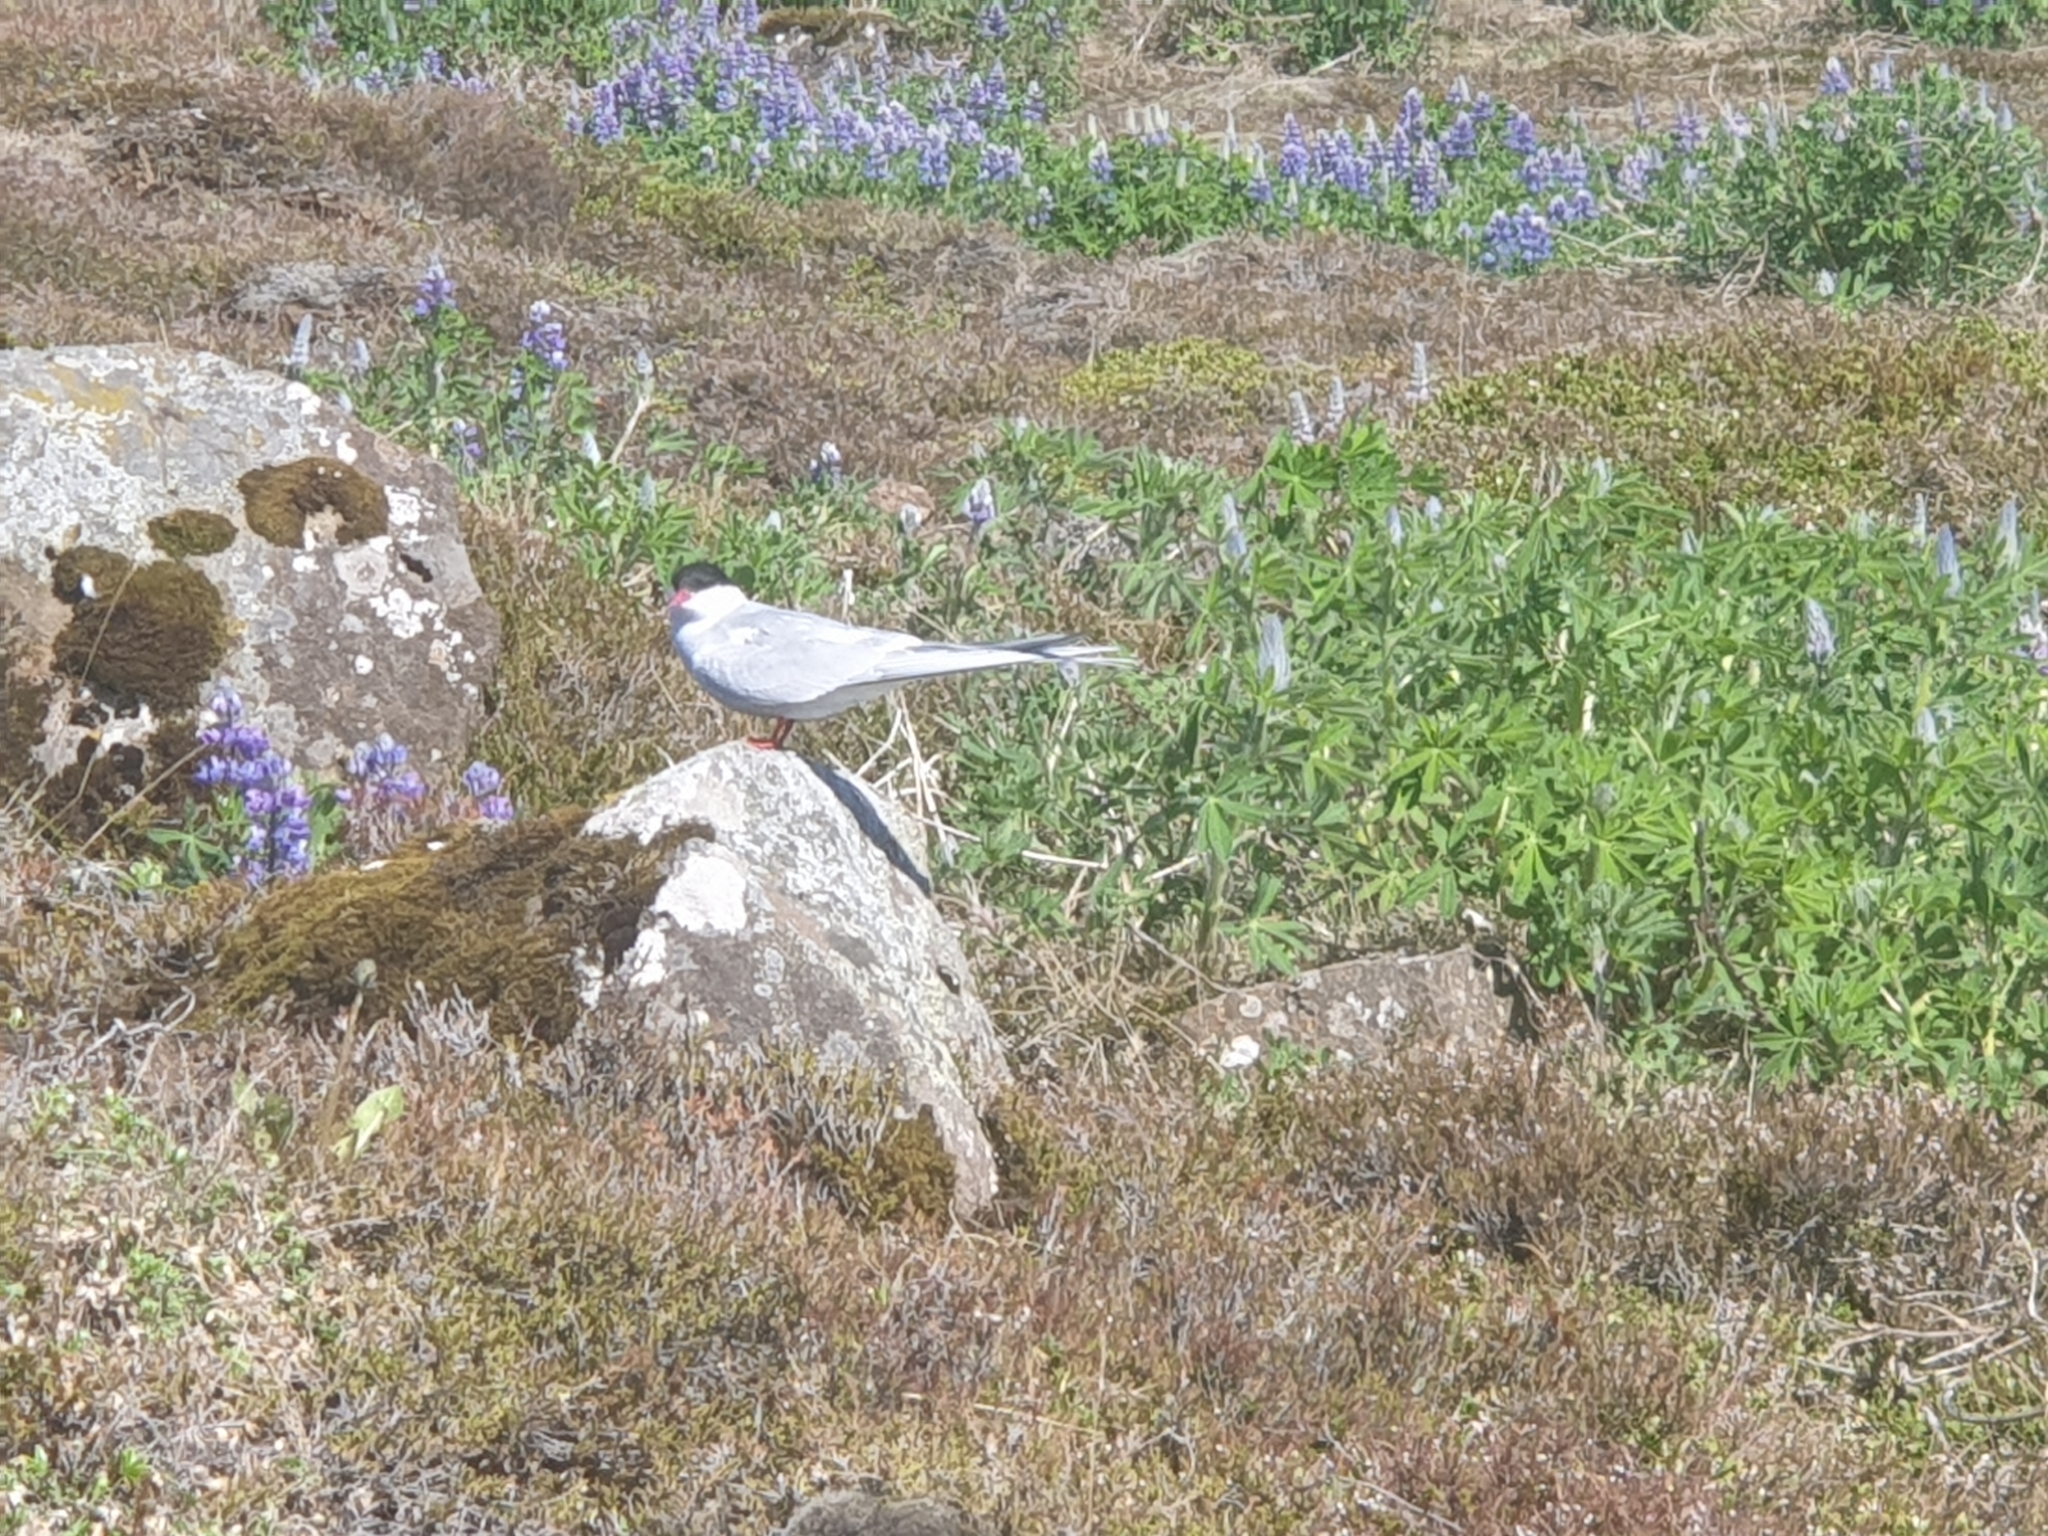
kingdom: Animalia
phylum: Chordata
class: Aves
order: Charadriiformes
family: Laridae
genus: Sterna
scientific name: Sterna paradisaea
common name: Arctic tern
